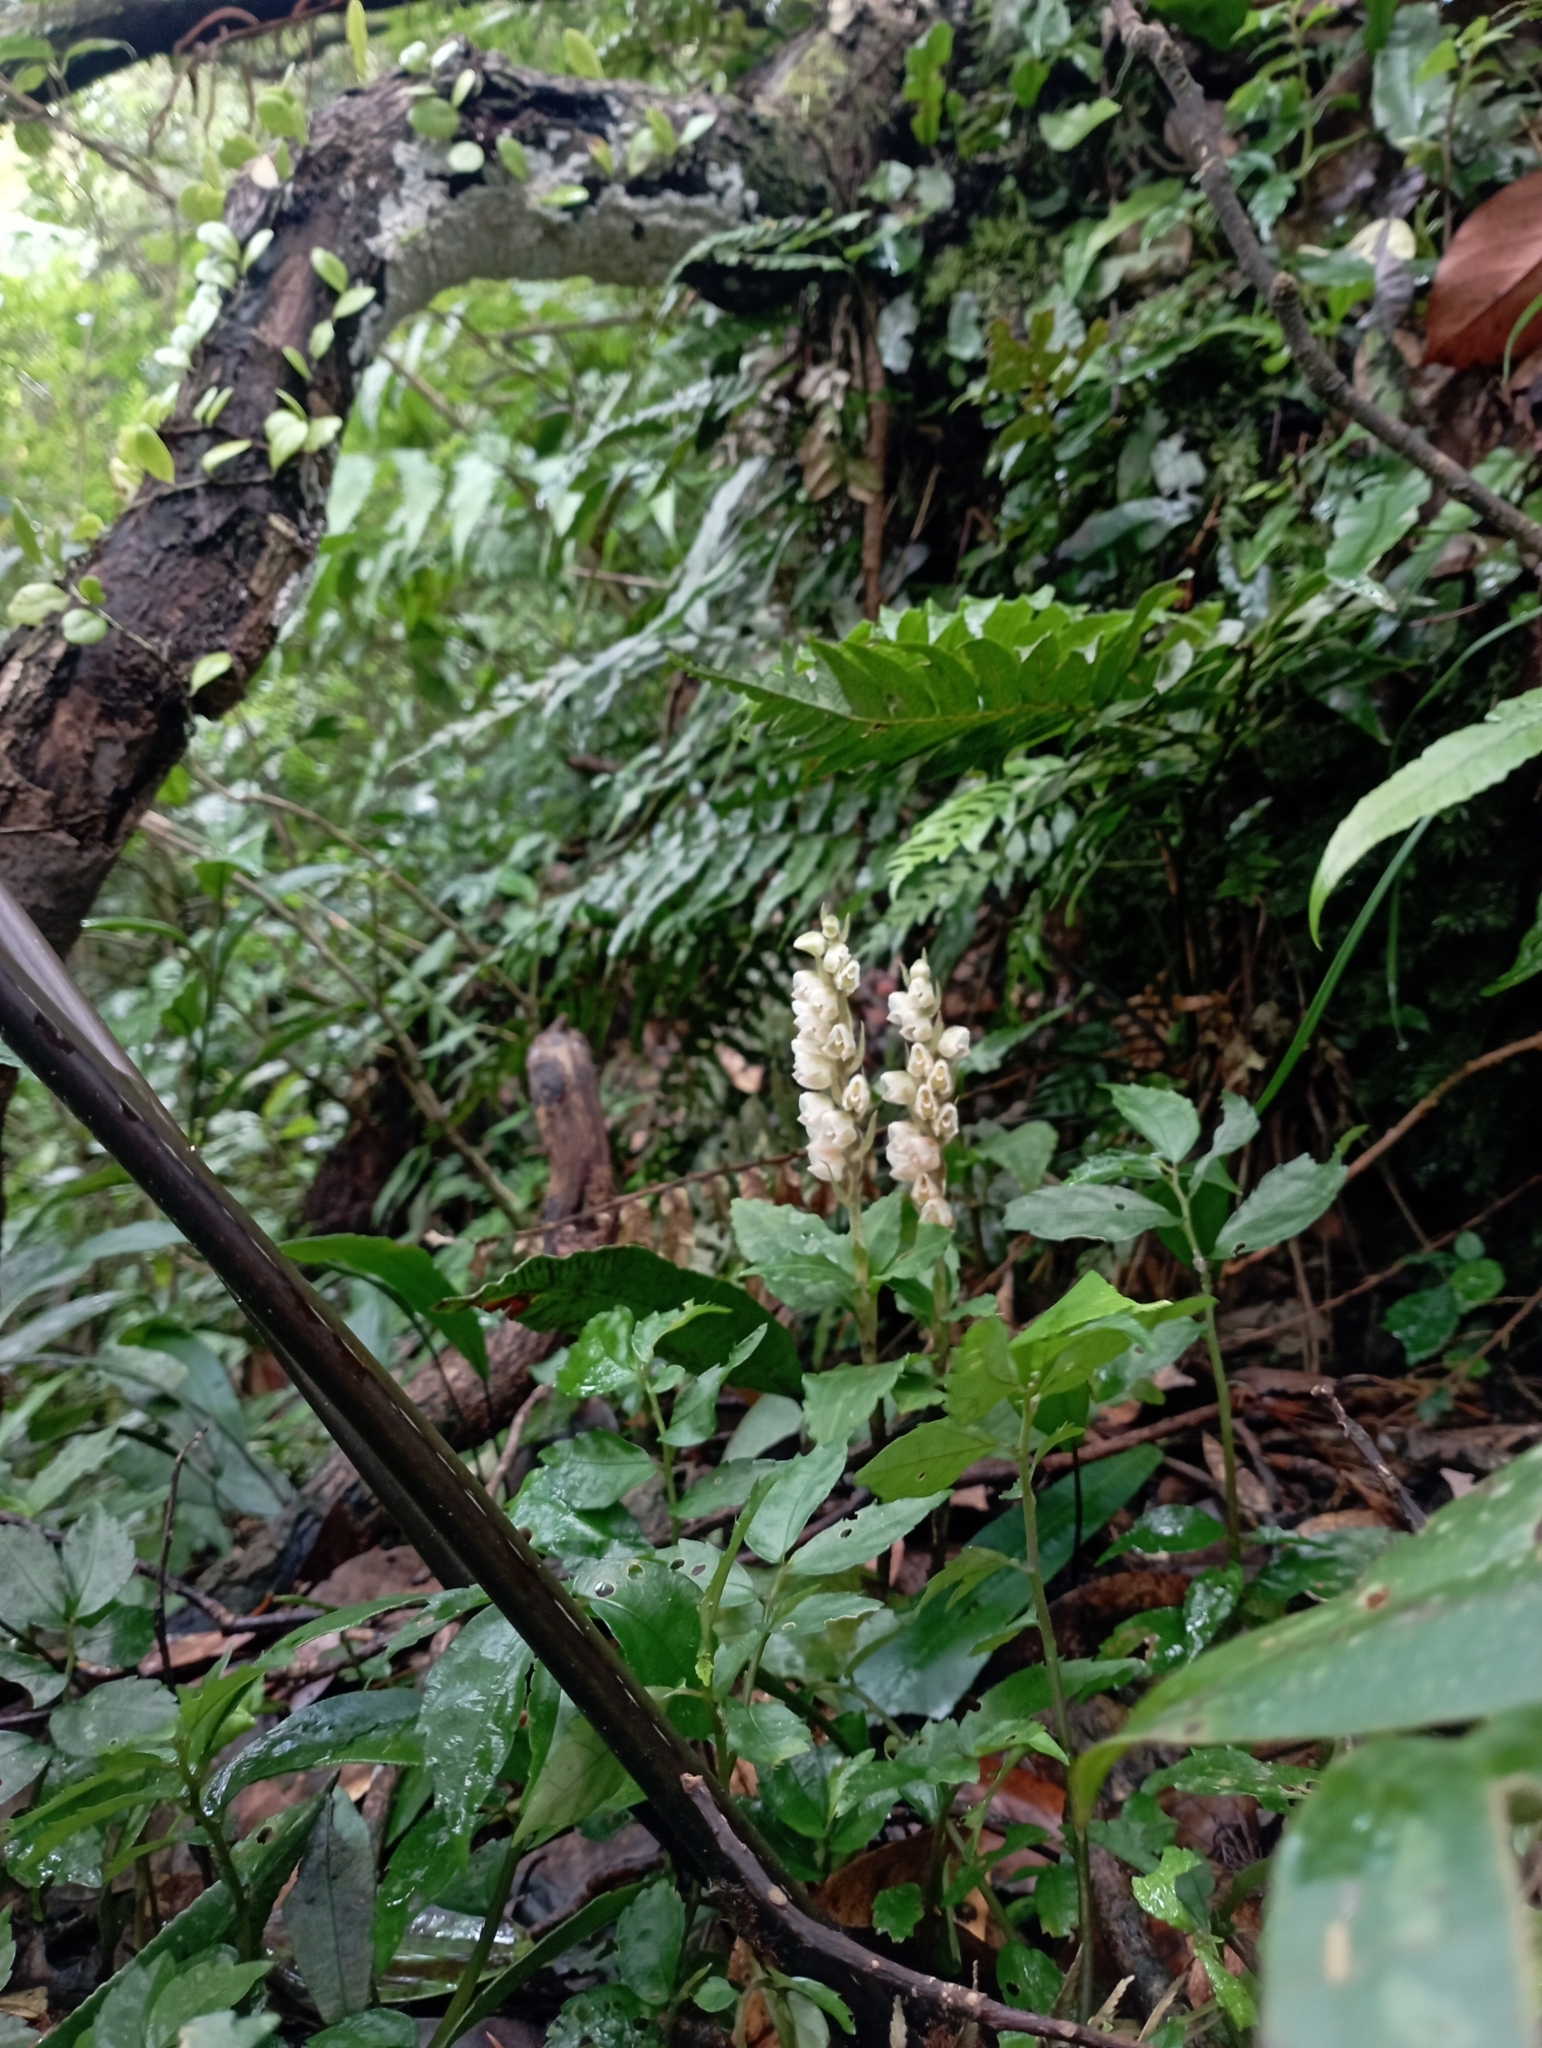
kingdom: Plantae
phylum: Tracheophyta
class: Liliopsida
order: Asparagales
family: Orchidaceae
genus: Goodyera
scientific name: Goodyera foliosa
